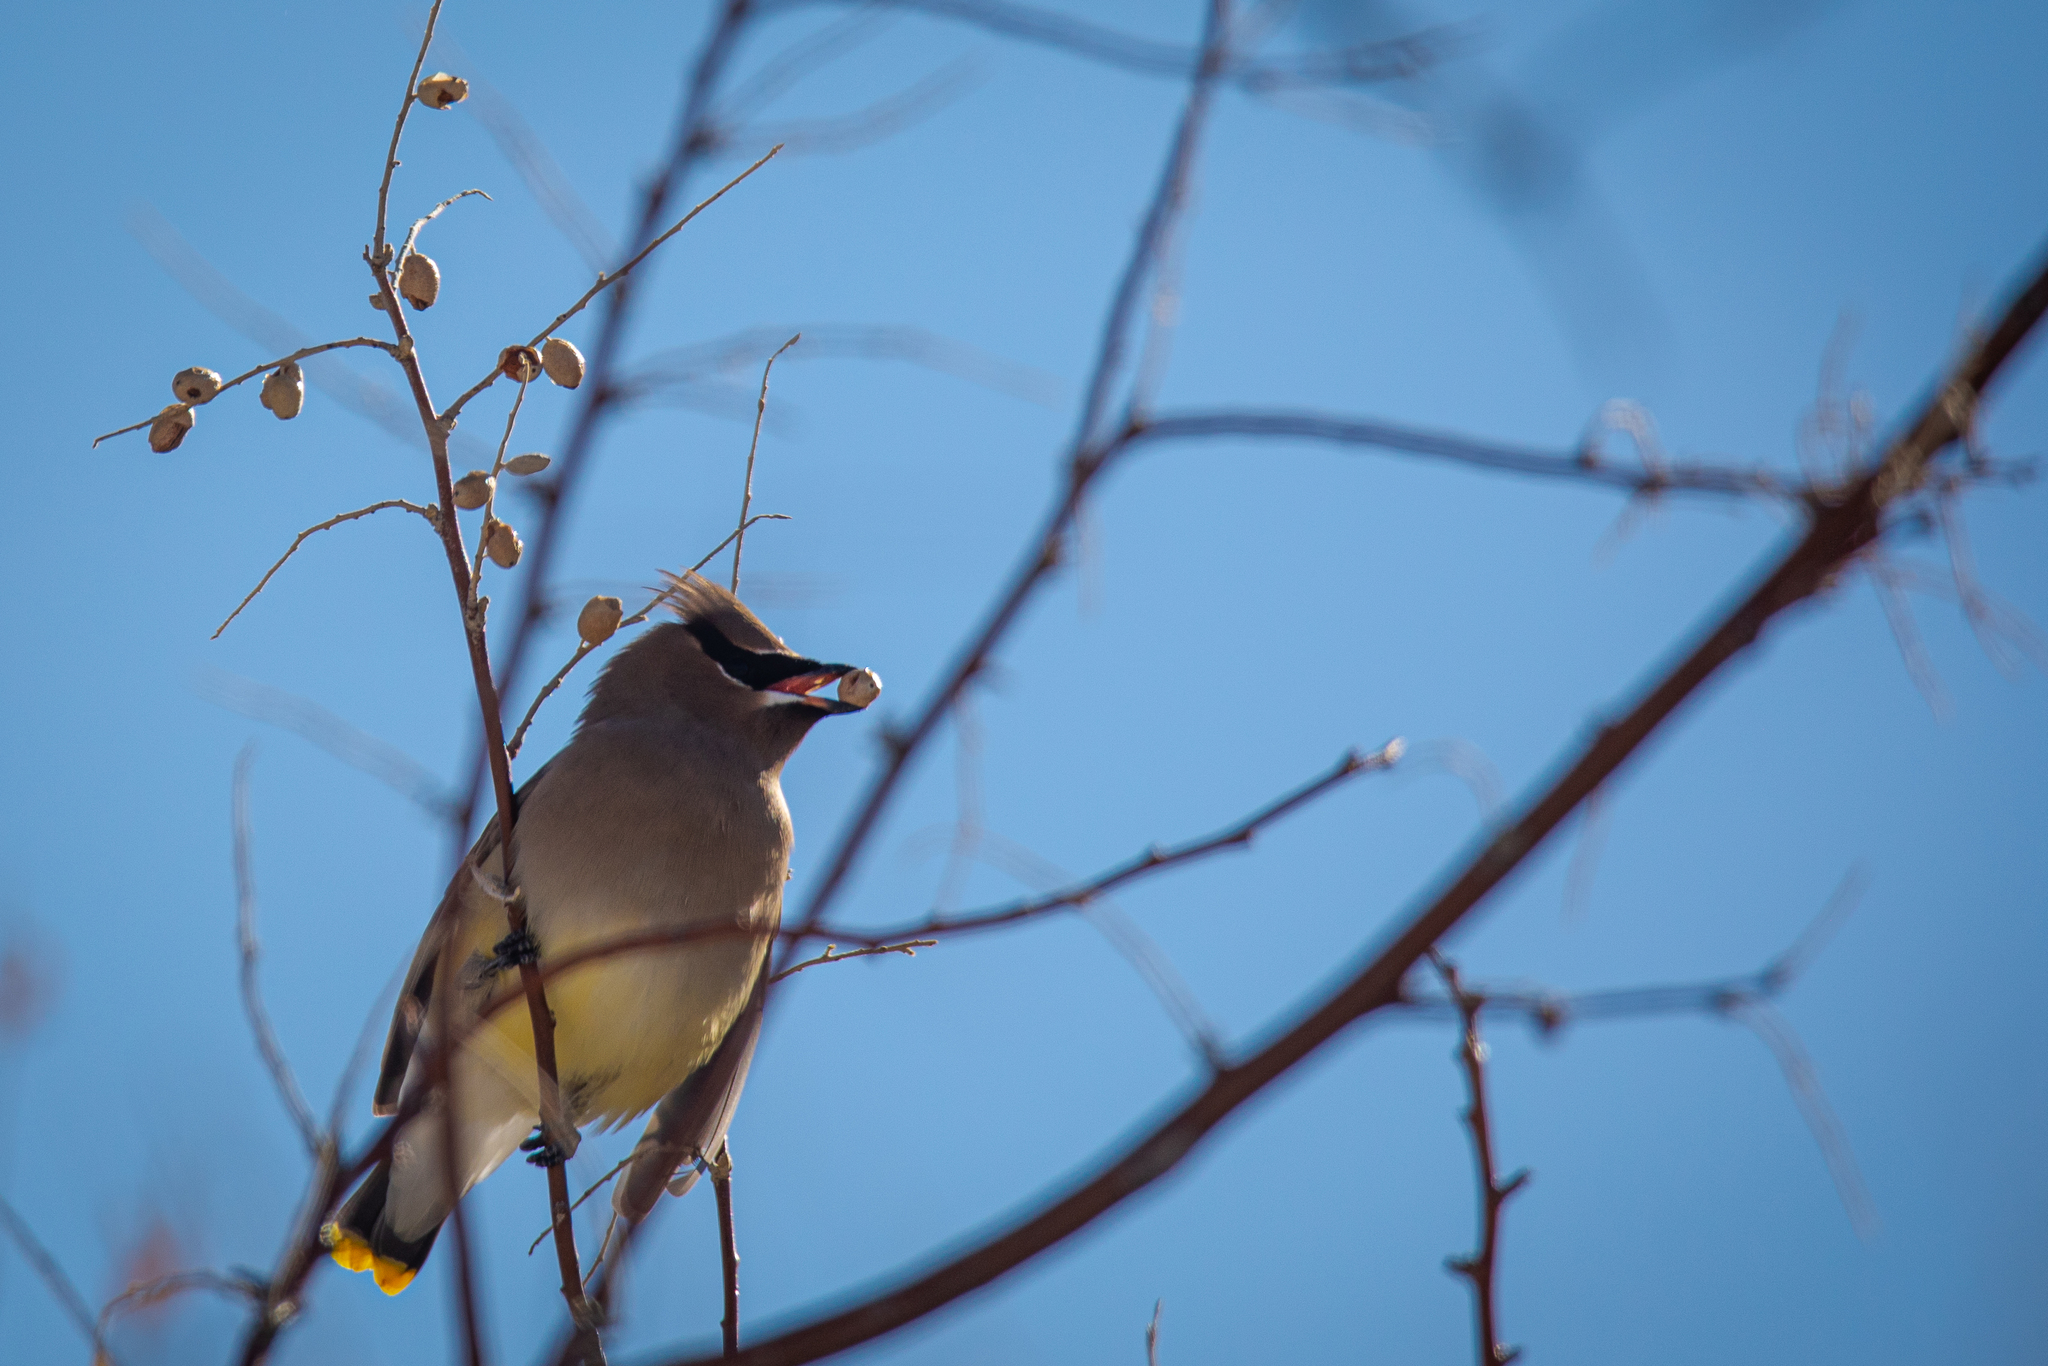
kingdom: Animalia
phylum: Chordata
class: Aves
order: Passeriformes
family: Bombycillidae
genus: Bombycilla
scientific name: Bombycilla cedrorum
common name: Cedar waxwing
